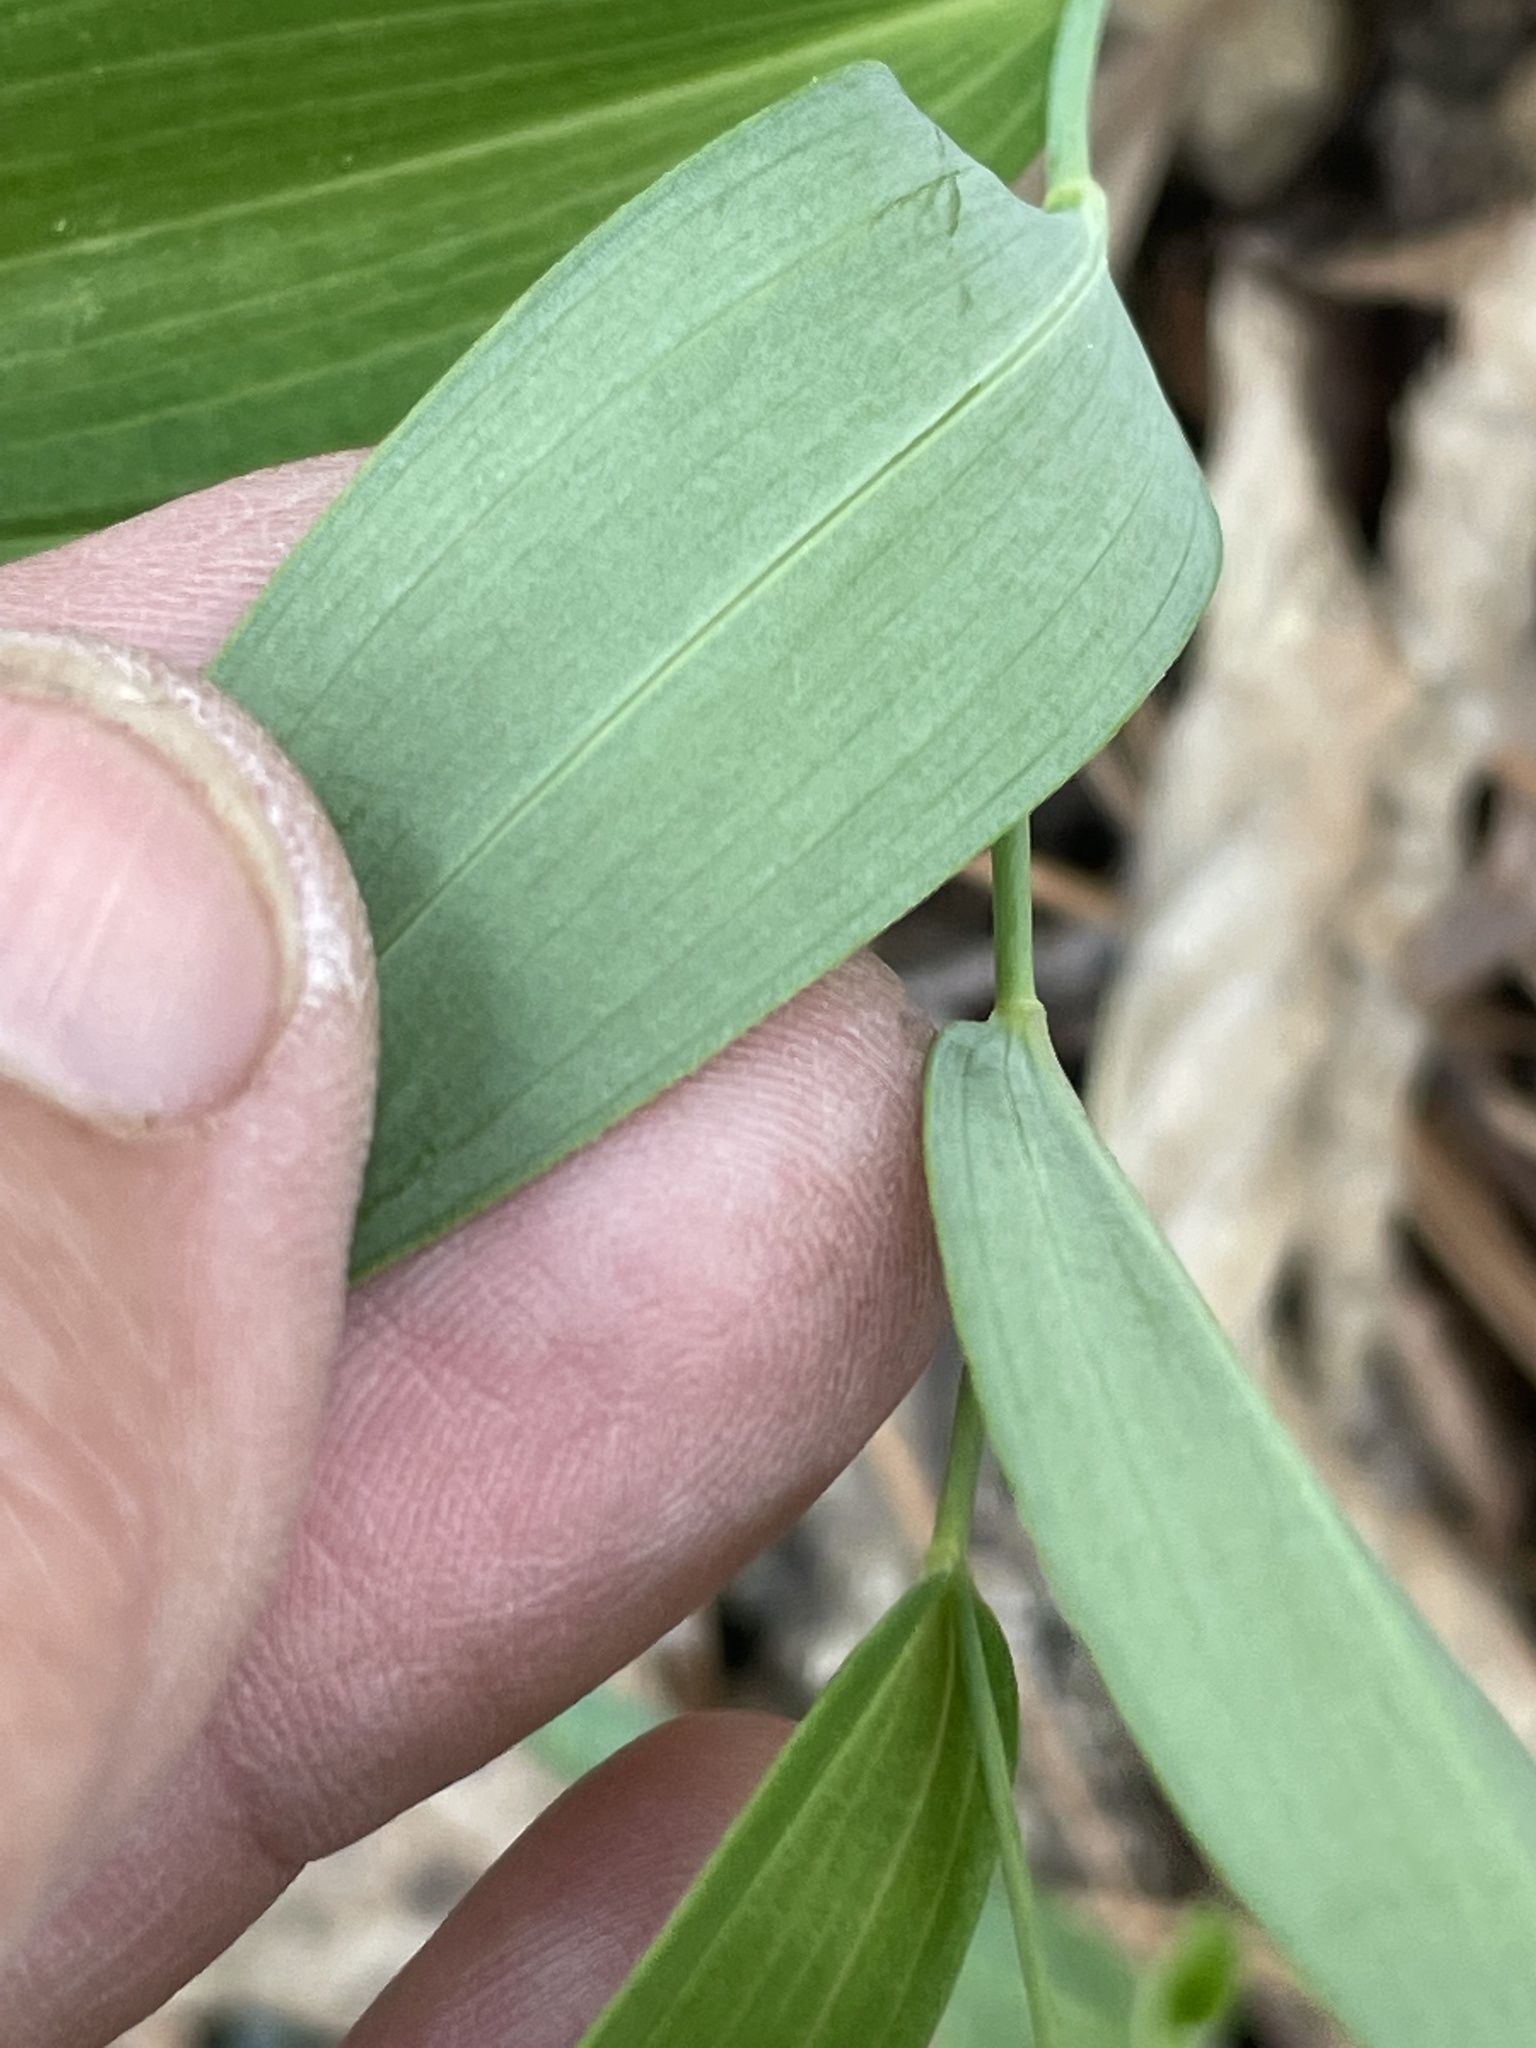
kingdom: Plantae
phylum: Tracheophyta
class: Liliopsida
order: Asparagales
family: Asparagaceae
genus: Polygonatum
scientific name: Polygonatum biflorum
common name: American solomon's-seal
